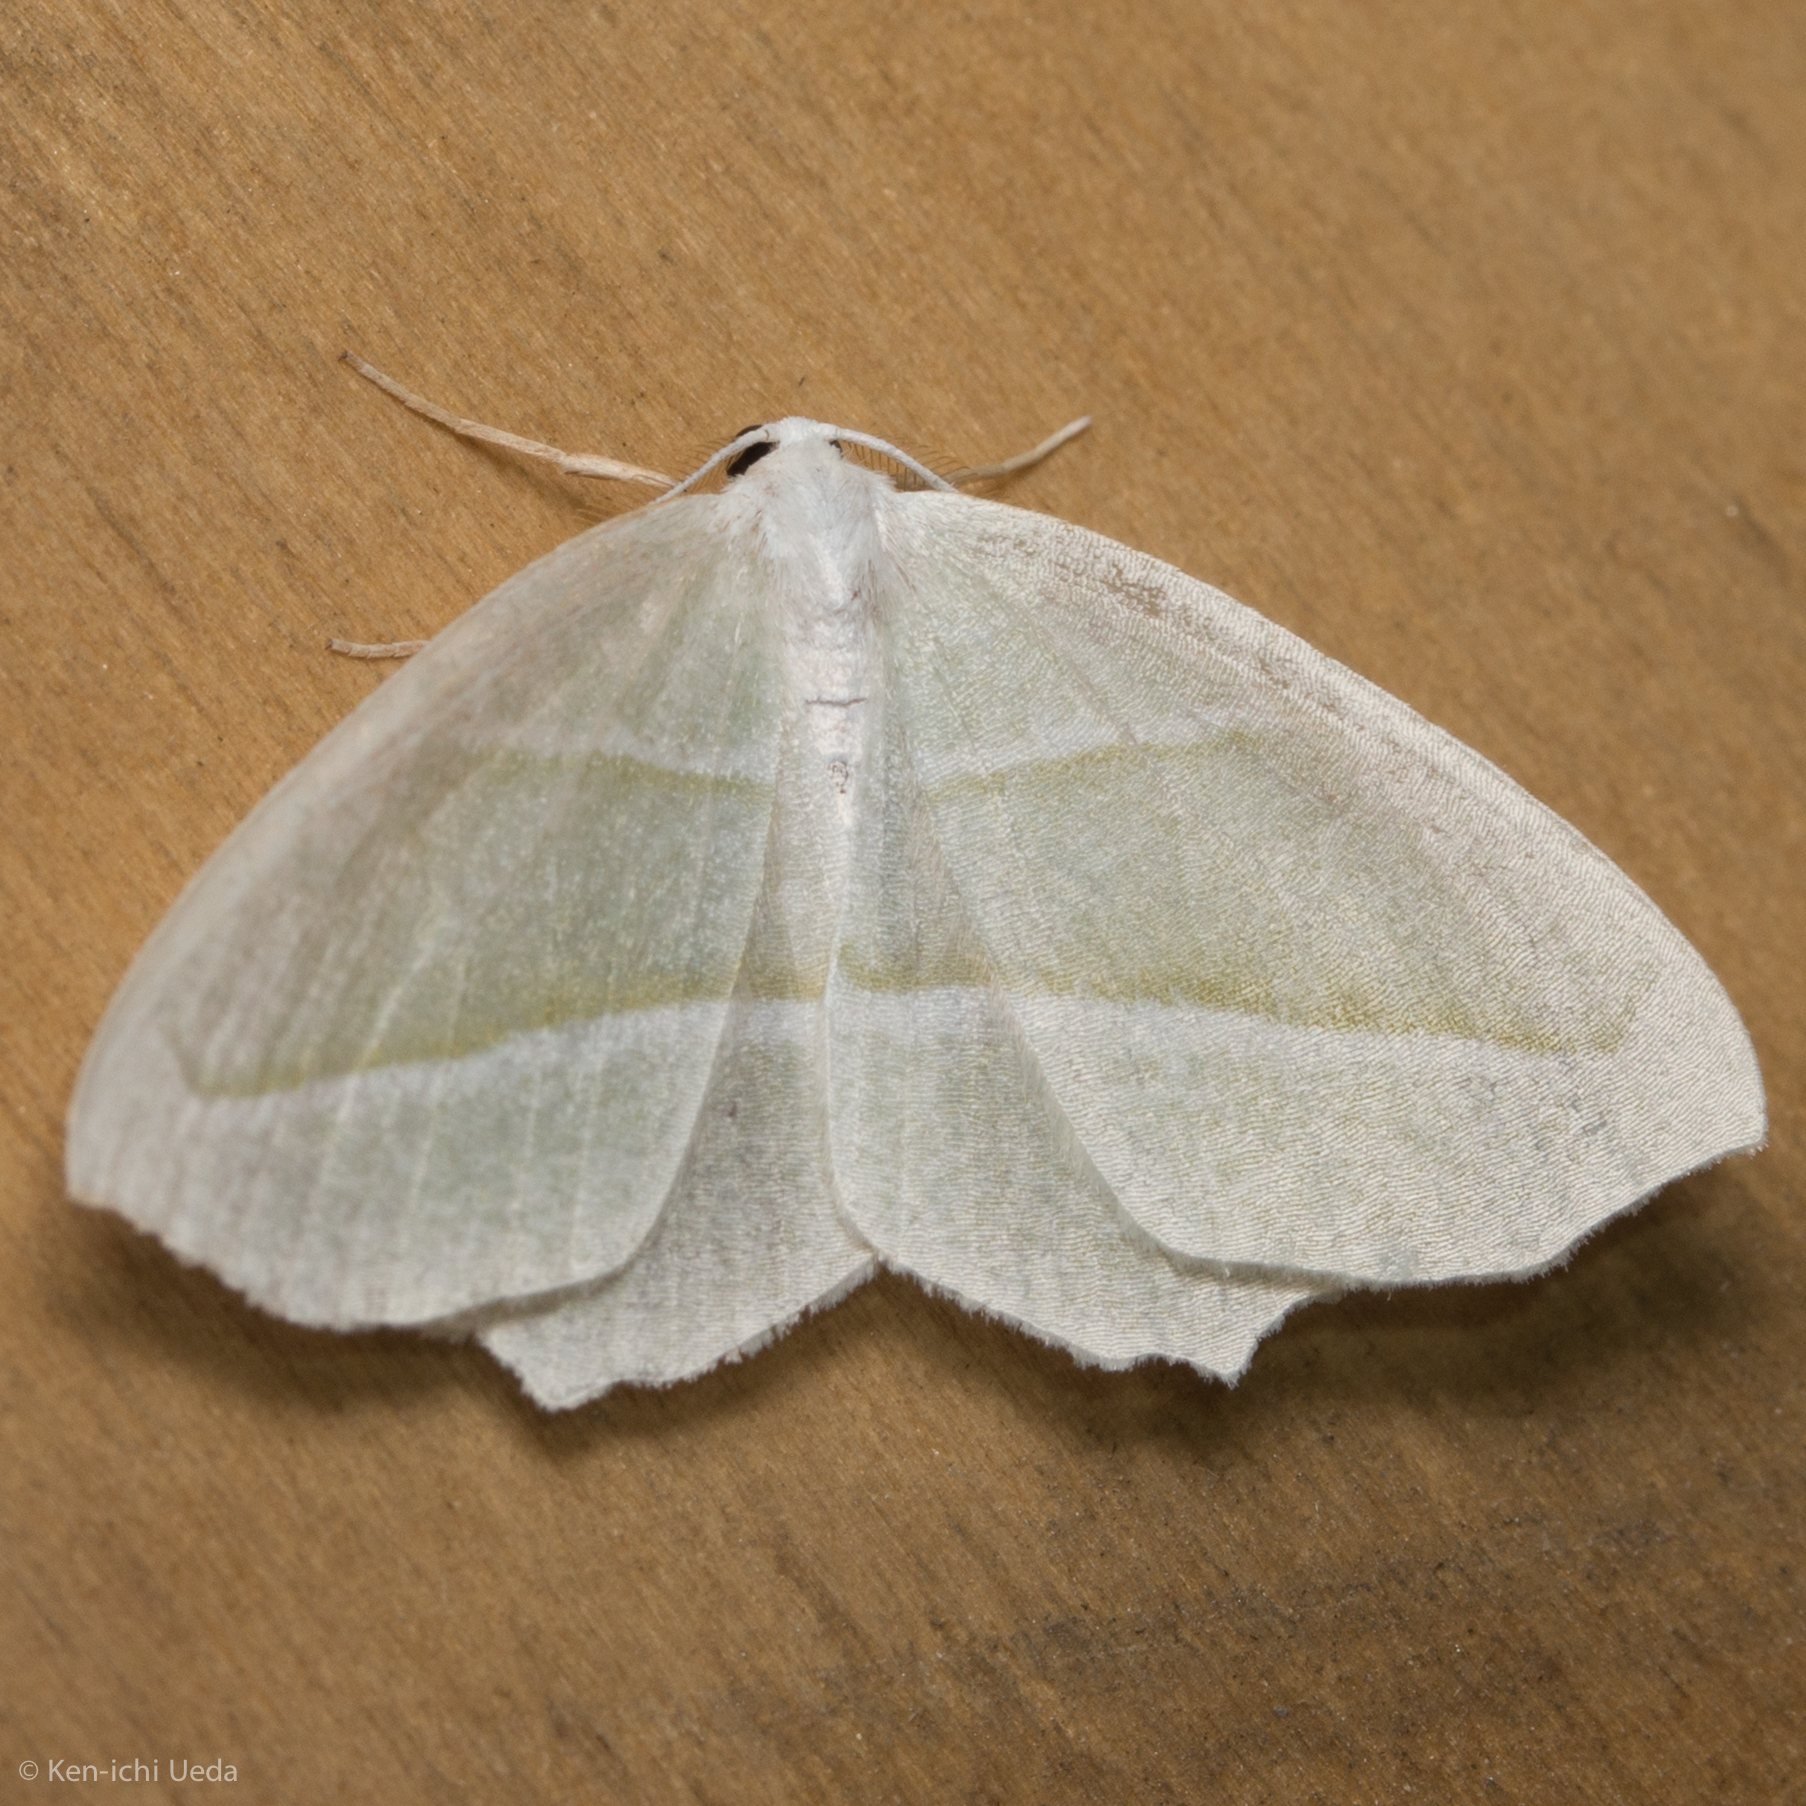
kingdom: Animalia
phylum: Arthropoda
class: Insecta
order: Lepidoptera
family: Geometridae
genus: Campaea
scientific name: Campaea perlata
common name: Fringed looper
